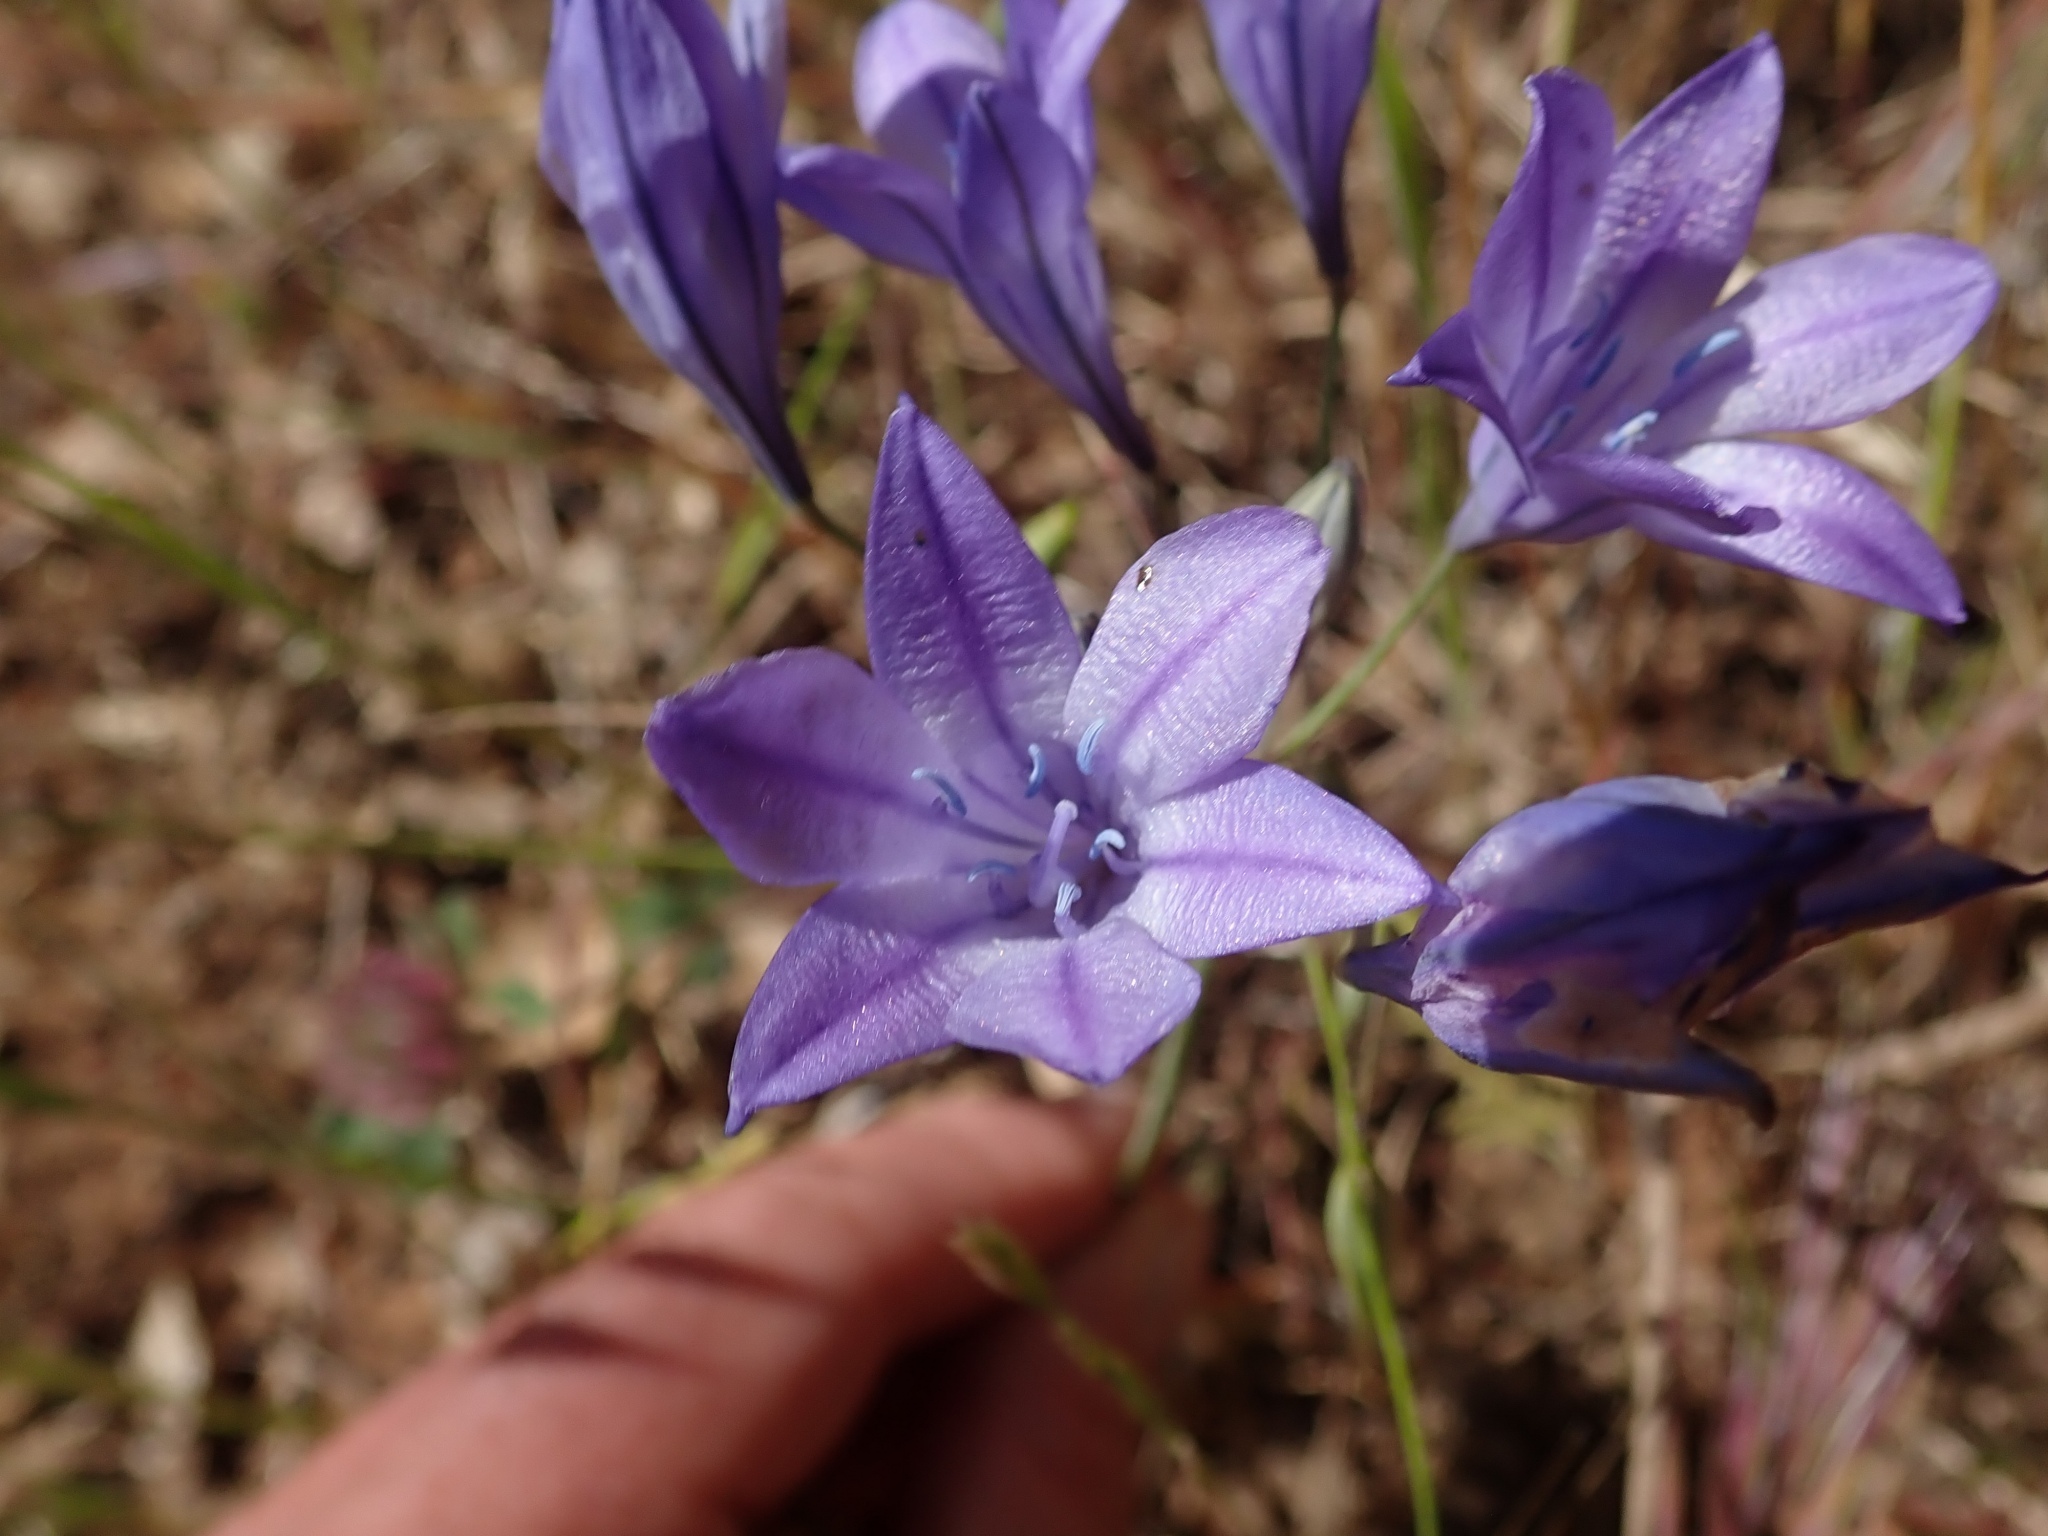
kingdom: Plantae
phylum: Tracheophyta
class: Liliopsida
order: Asparagales
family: Asparagaceae
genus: Triteleia
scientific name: Triteleia laxa
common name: Triplet-lily
